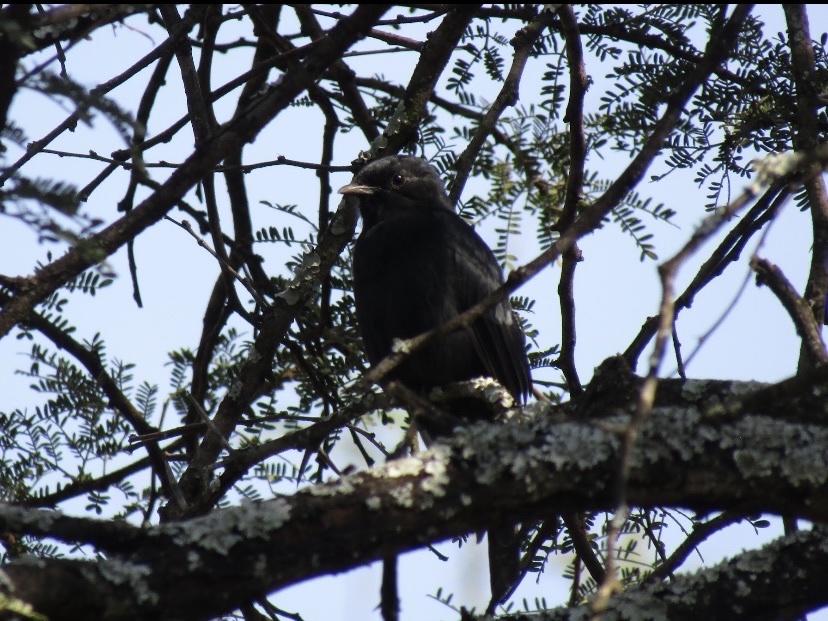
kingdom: Animalia
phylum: Chordata
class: Aves
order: Passeriformes
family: Muscicapidae
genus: Melaenornis
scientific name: Melaenornis pammelaina
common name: Southern black flycatcher
